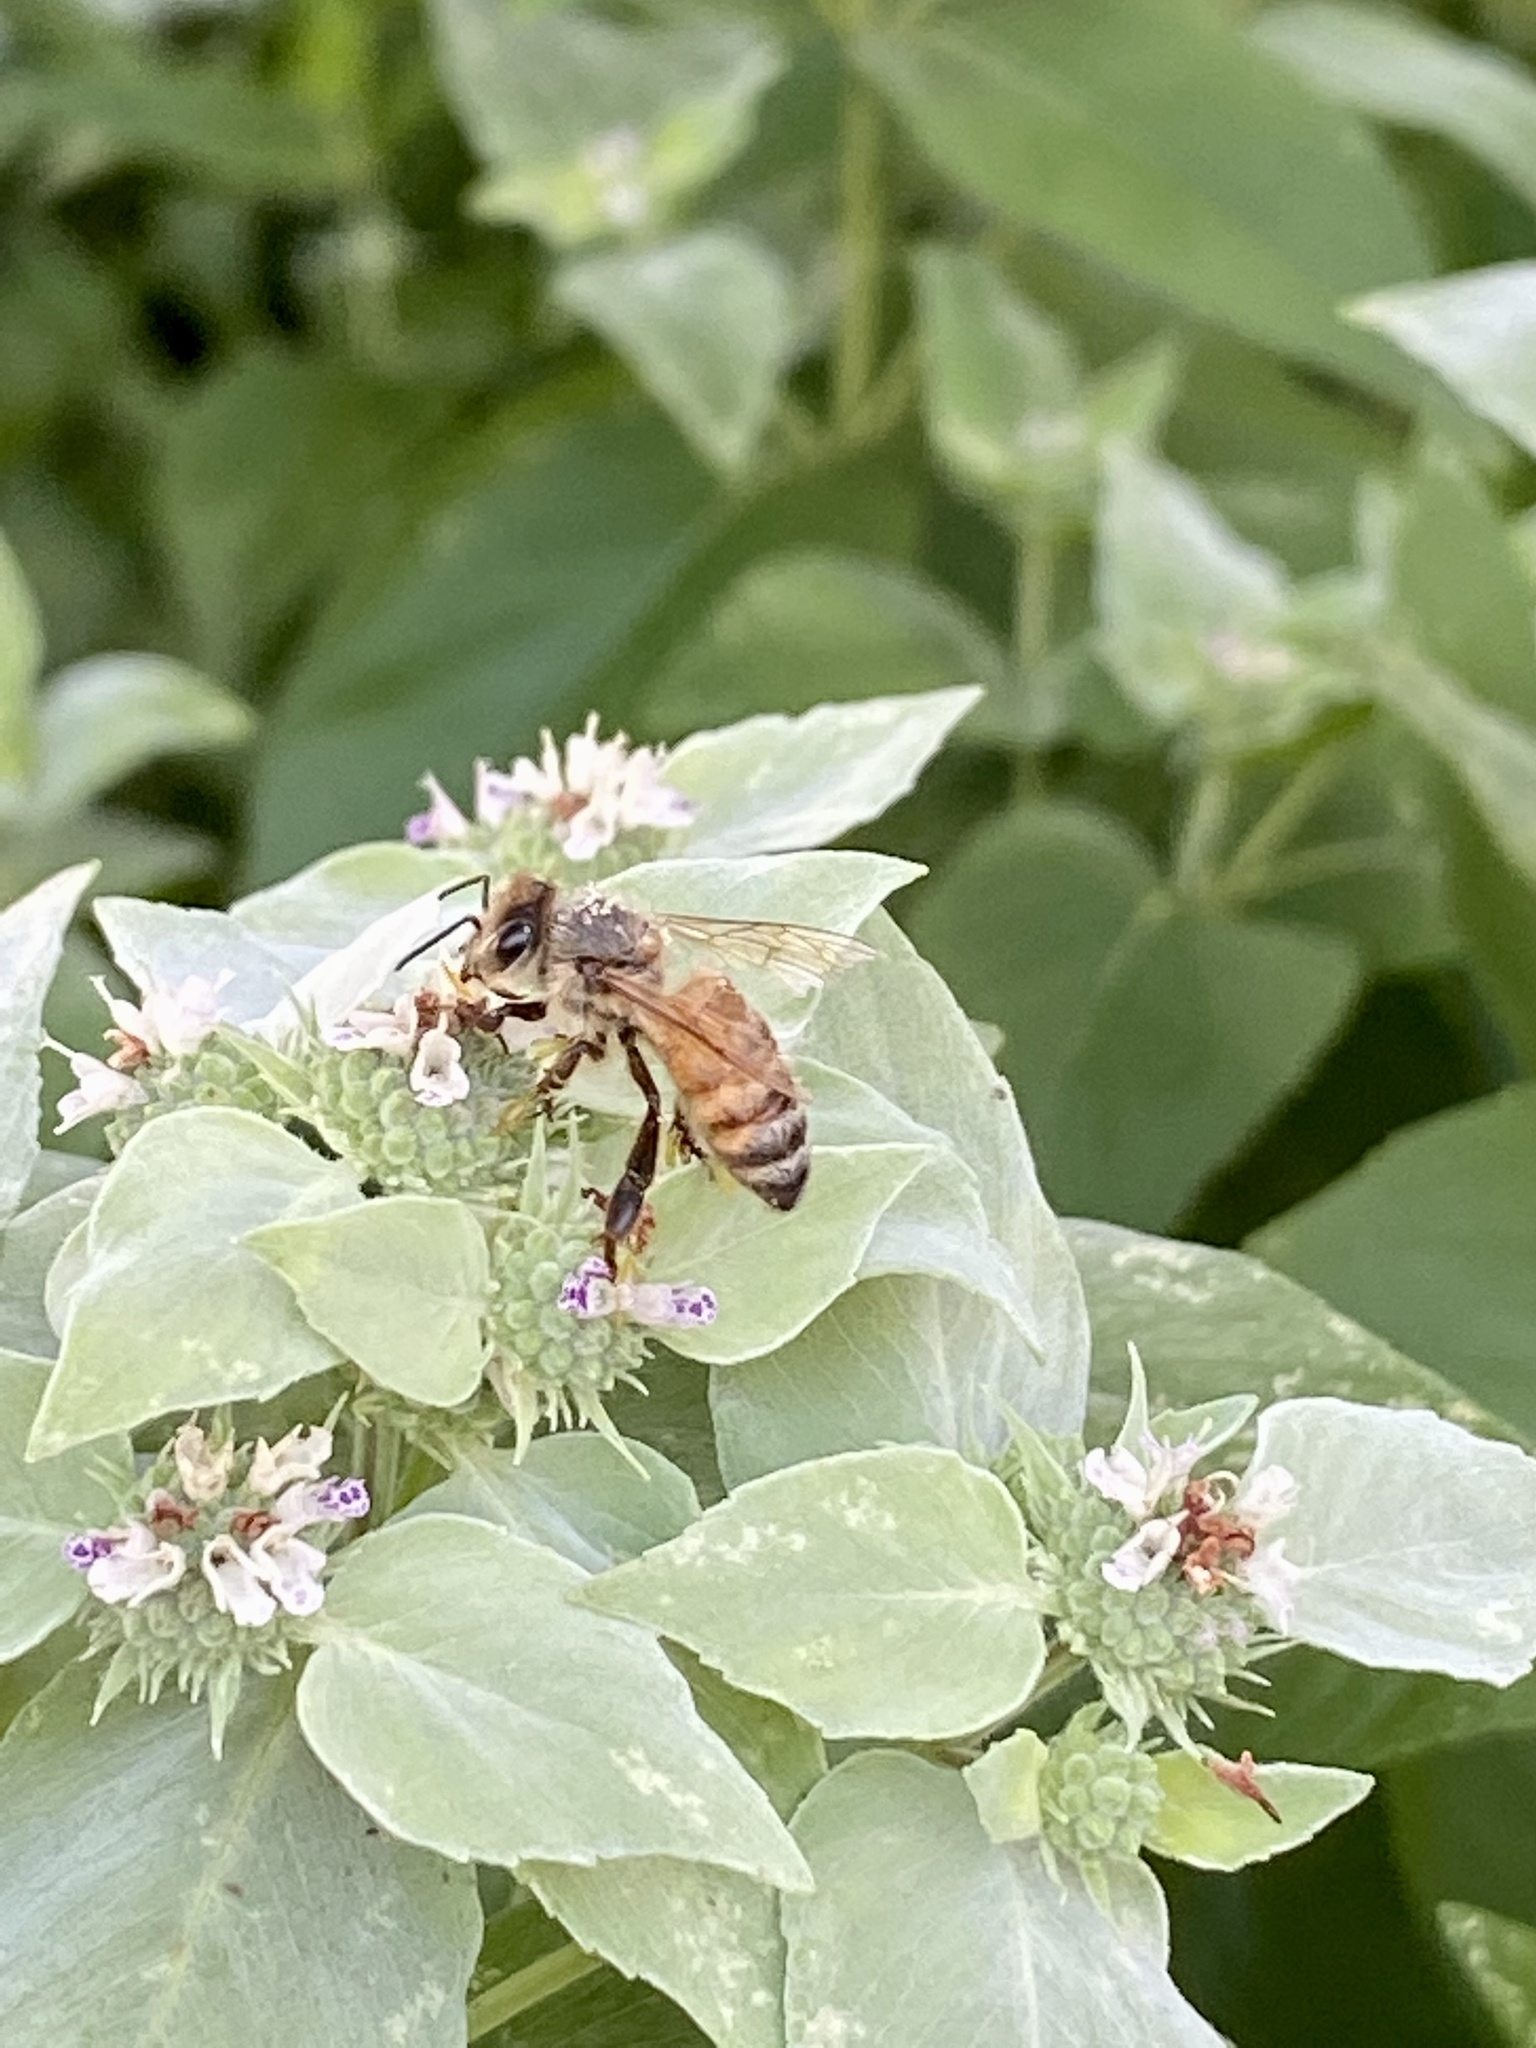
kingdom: Animalia
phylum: Arthropoda
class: Insecta
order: Hymenoptera
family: Apidae
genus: Apis
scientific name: Apis mellifera
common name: Honey bee
